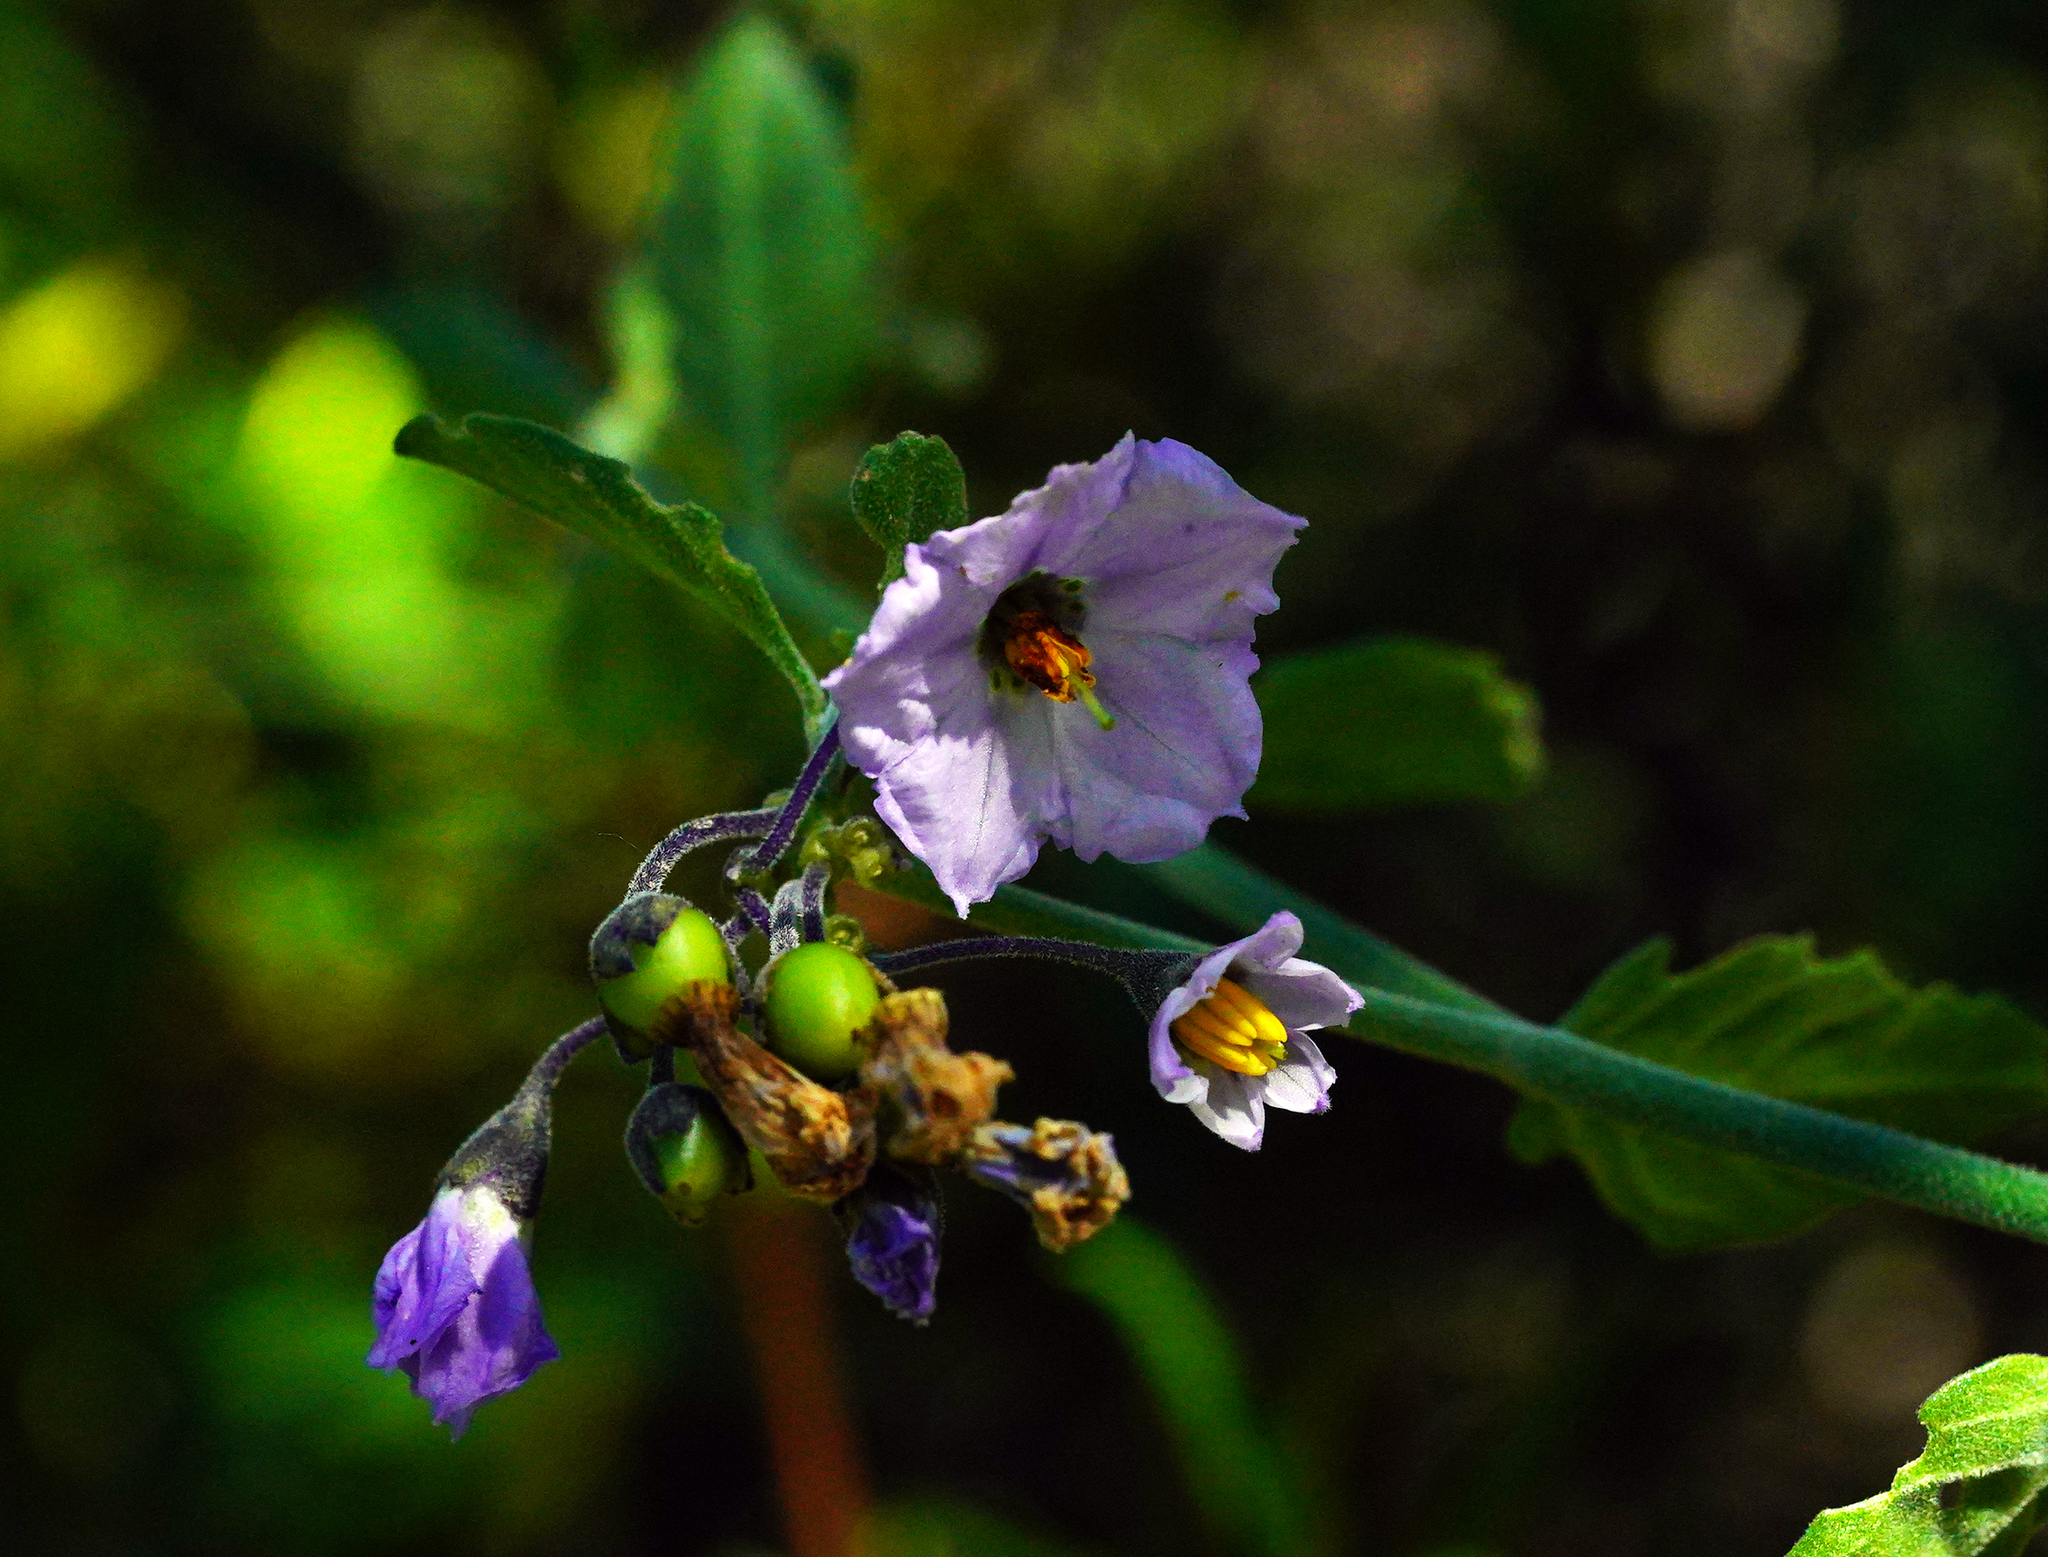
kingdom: Plantae
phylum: Tracheophyta
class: Magnoliopsida
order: Solanales
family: Solanaceae
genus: Solanum
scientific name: Solanum umbelliferum
